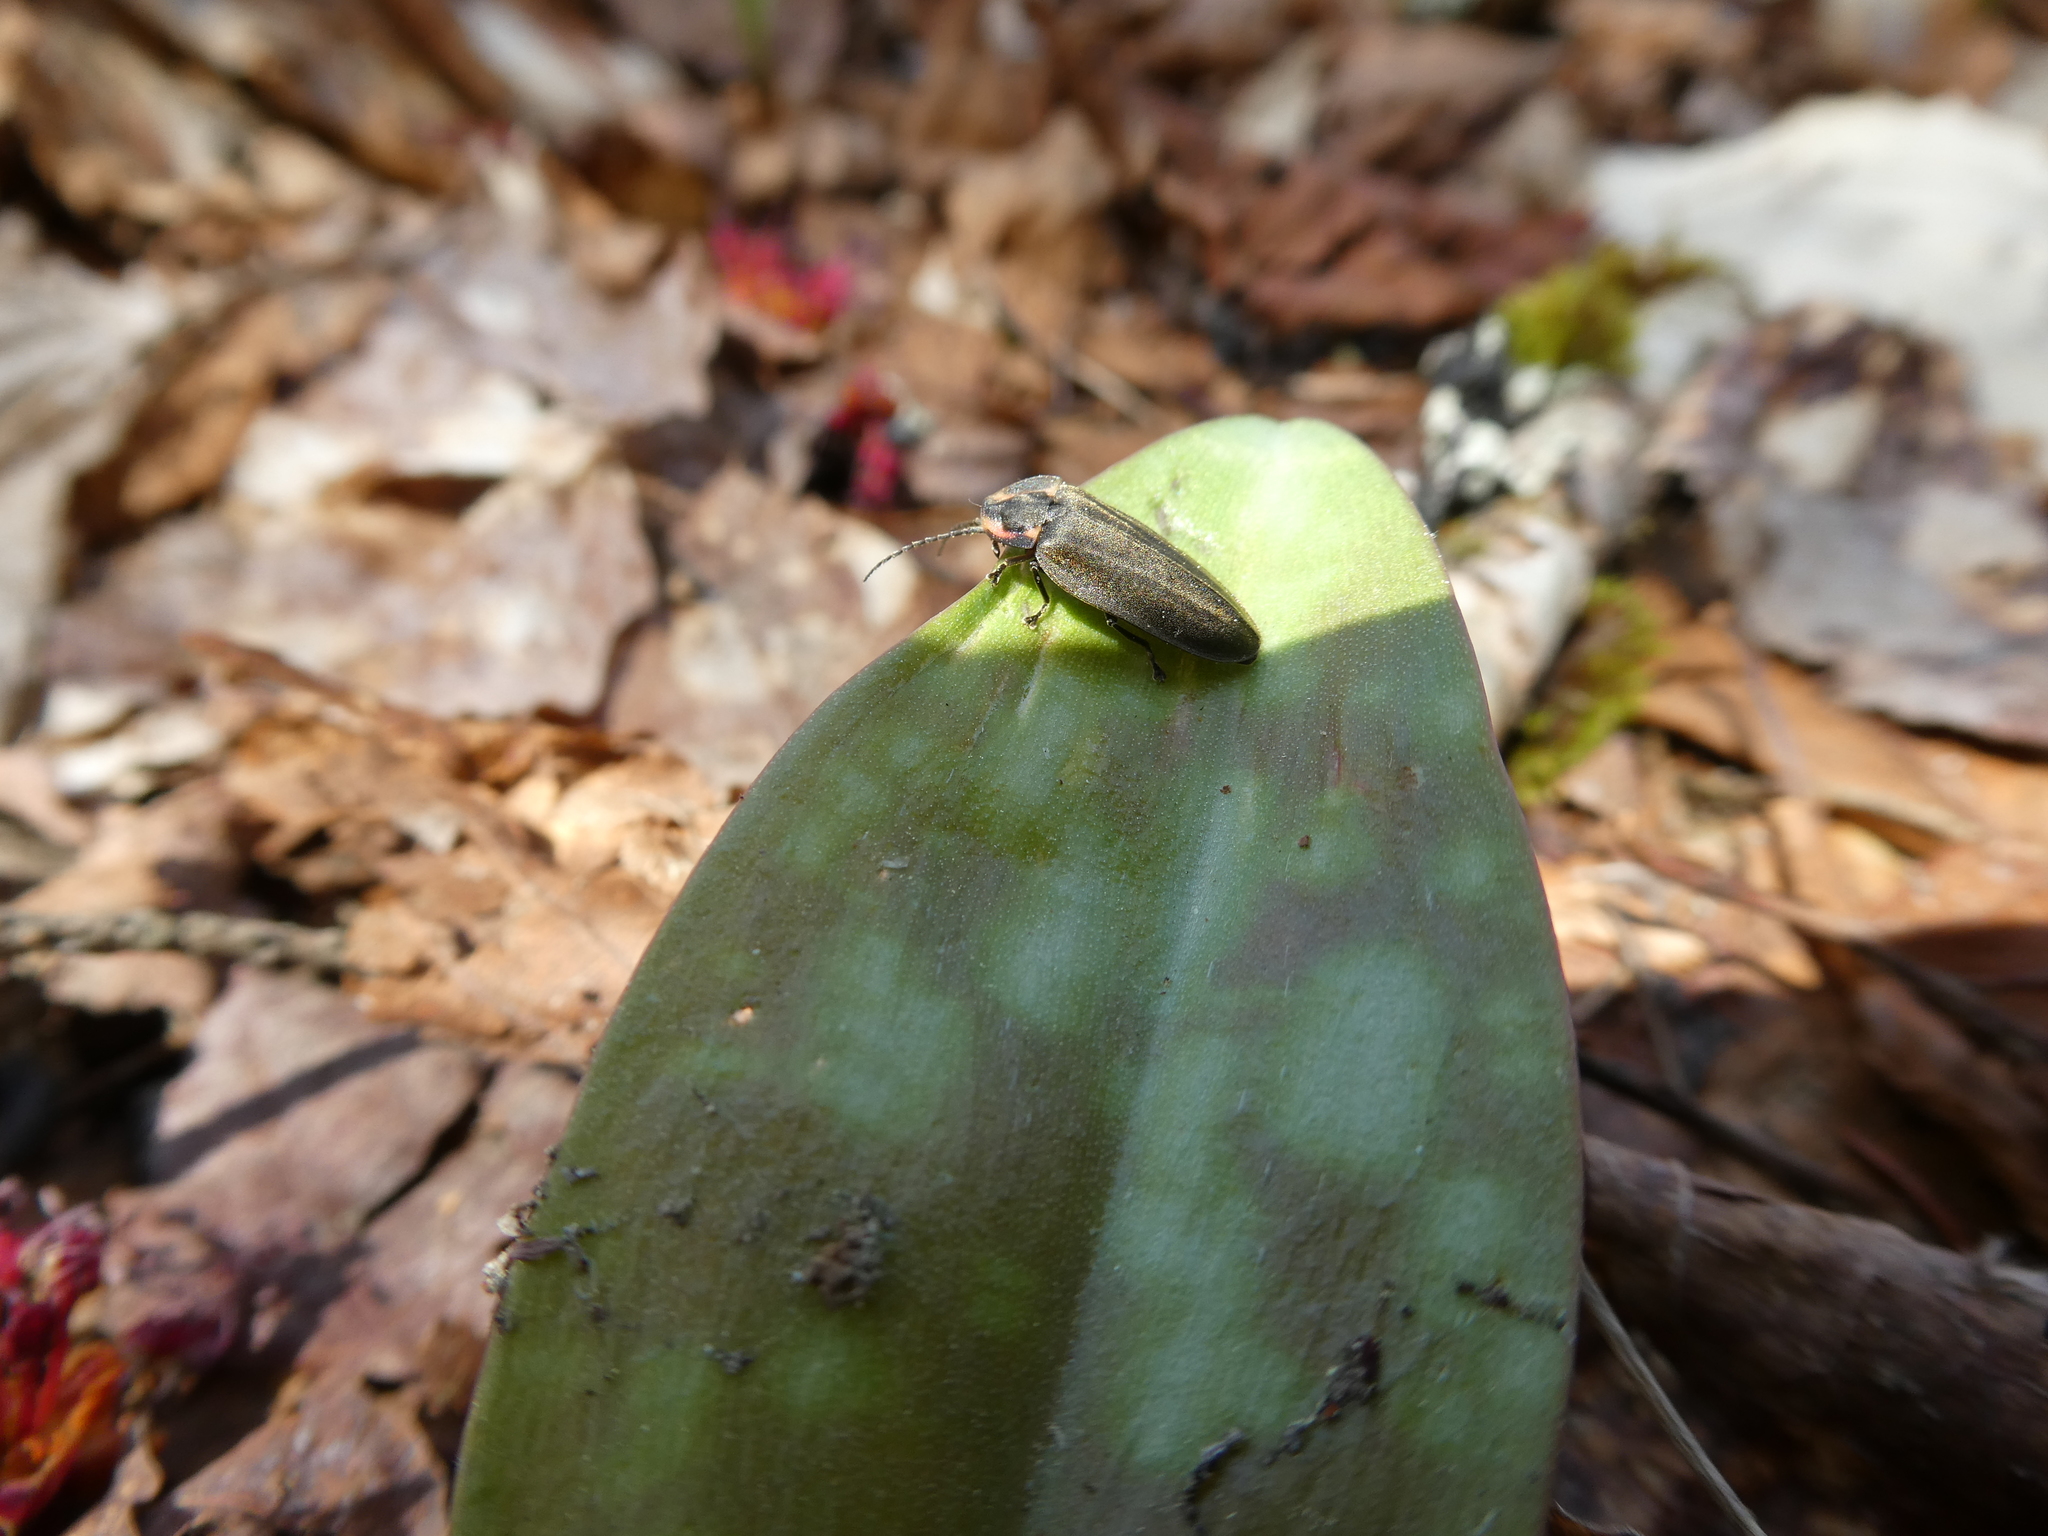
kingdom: Animalia
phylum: Arthropoda
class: Insecta
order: Coleoptera
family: Lampyridae
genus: Photinus
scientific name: Photinus corrusca
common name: Winter firefly
